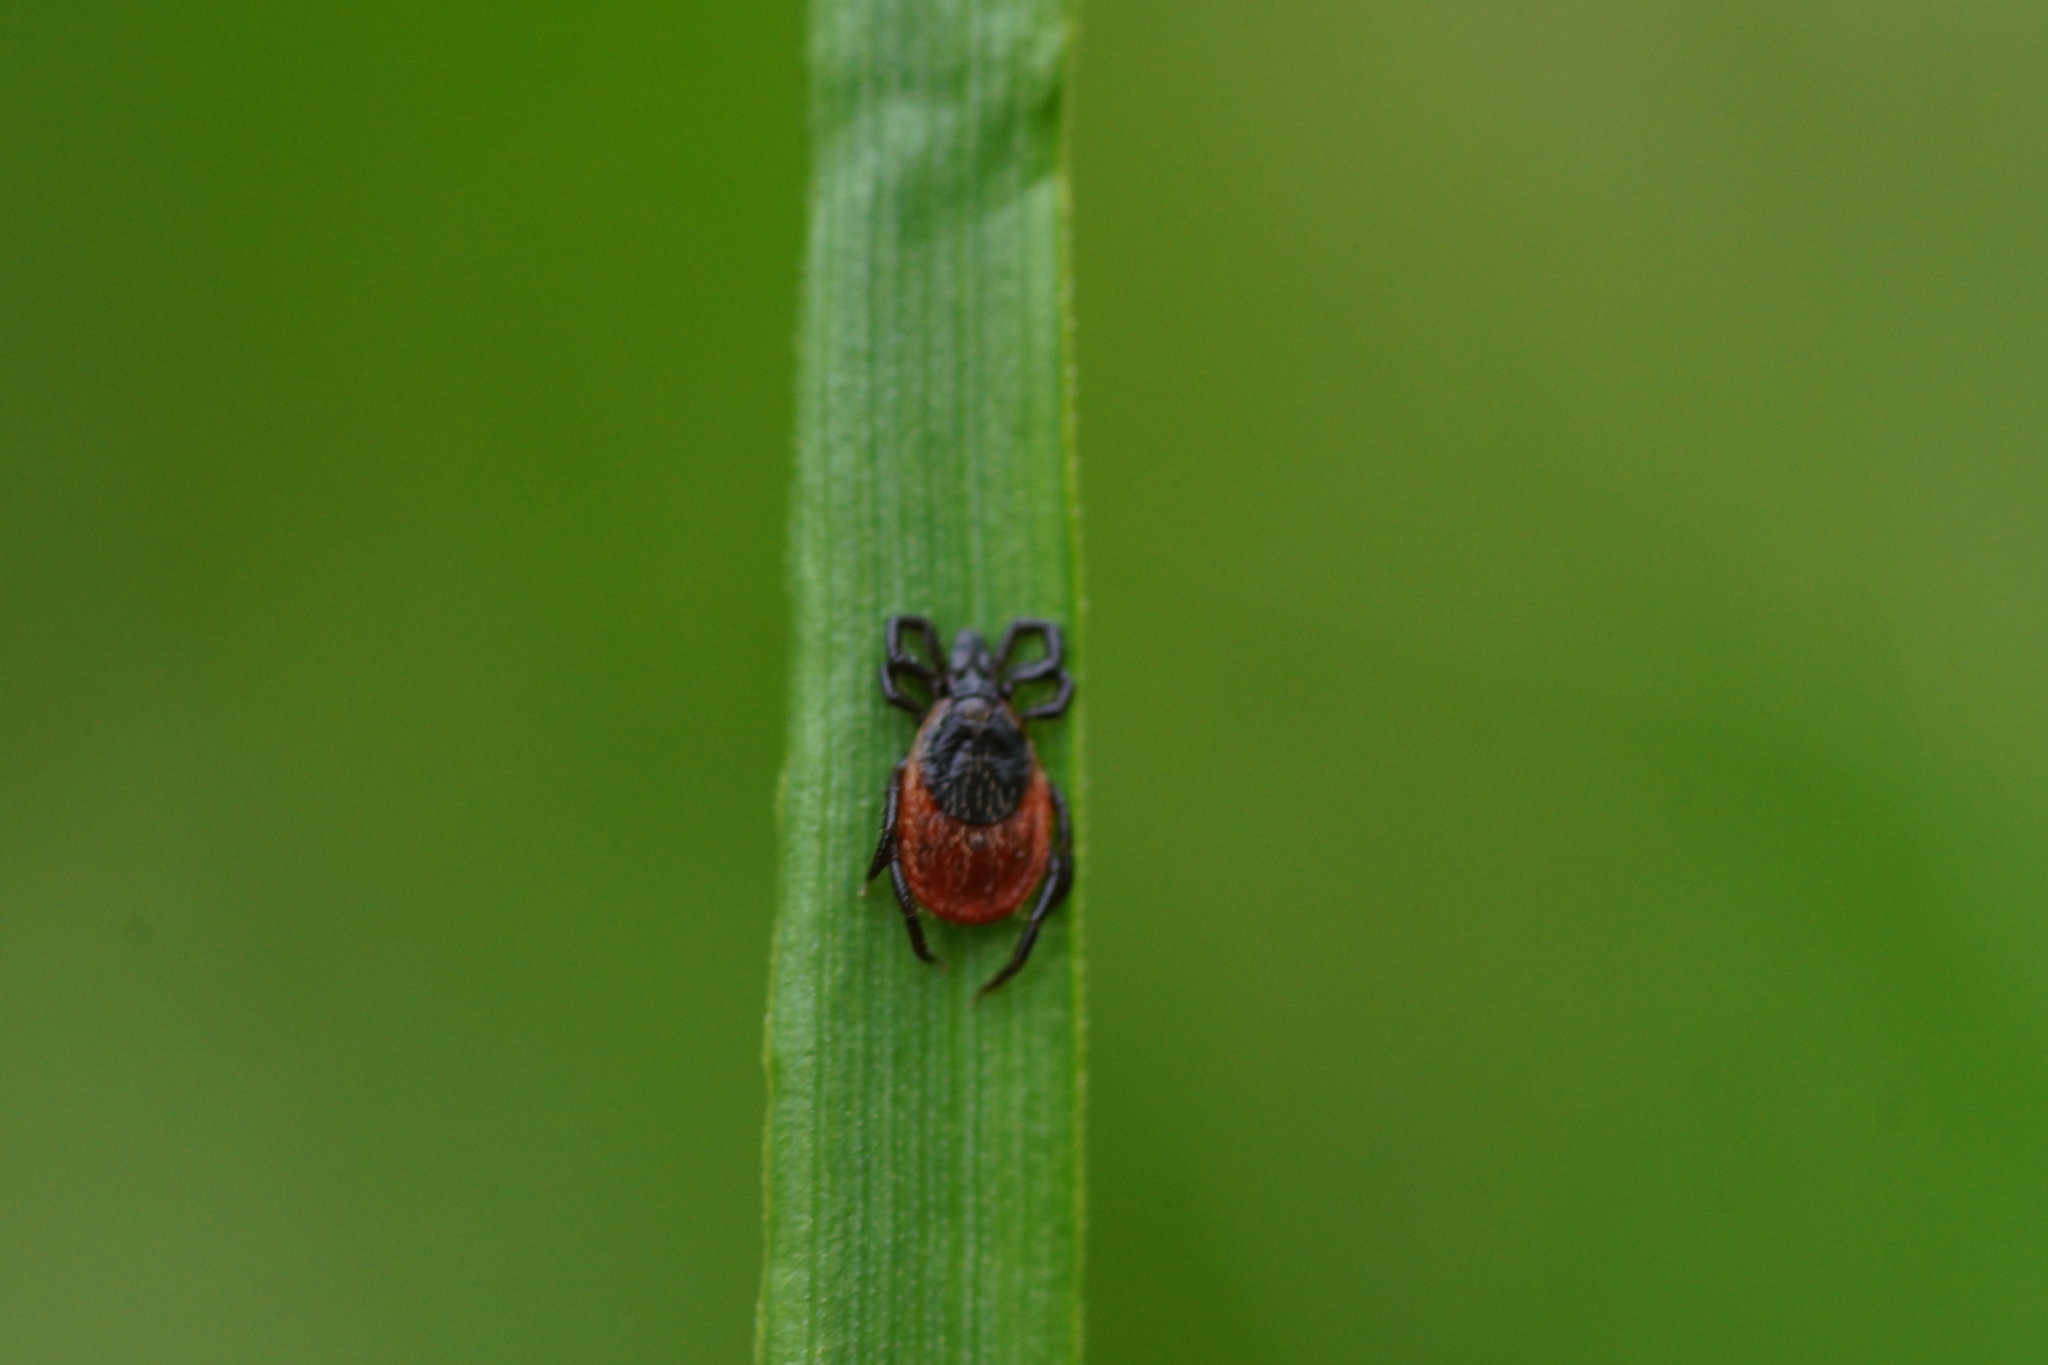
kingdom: Animalia
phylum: Arthropoda
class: Arachnida
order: Ixodida
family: Ixodidae
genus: Ixodes
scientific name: Ixodes ricinus
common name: Castor bean tick
